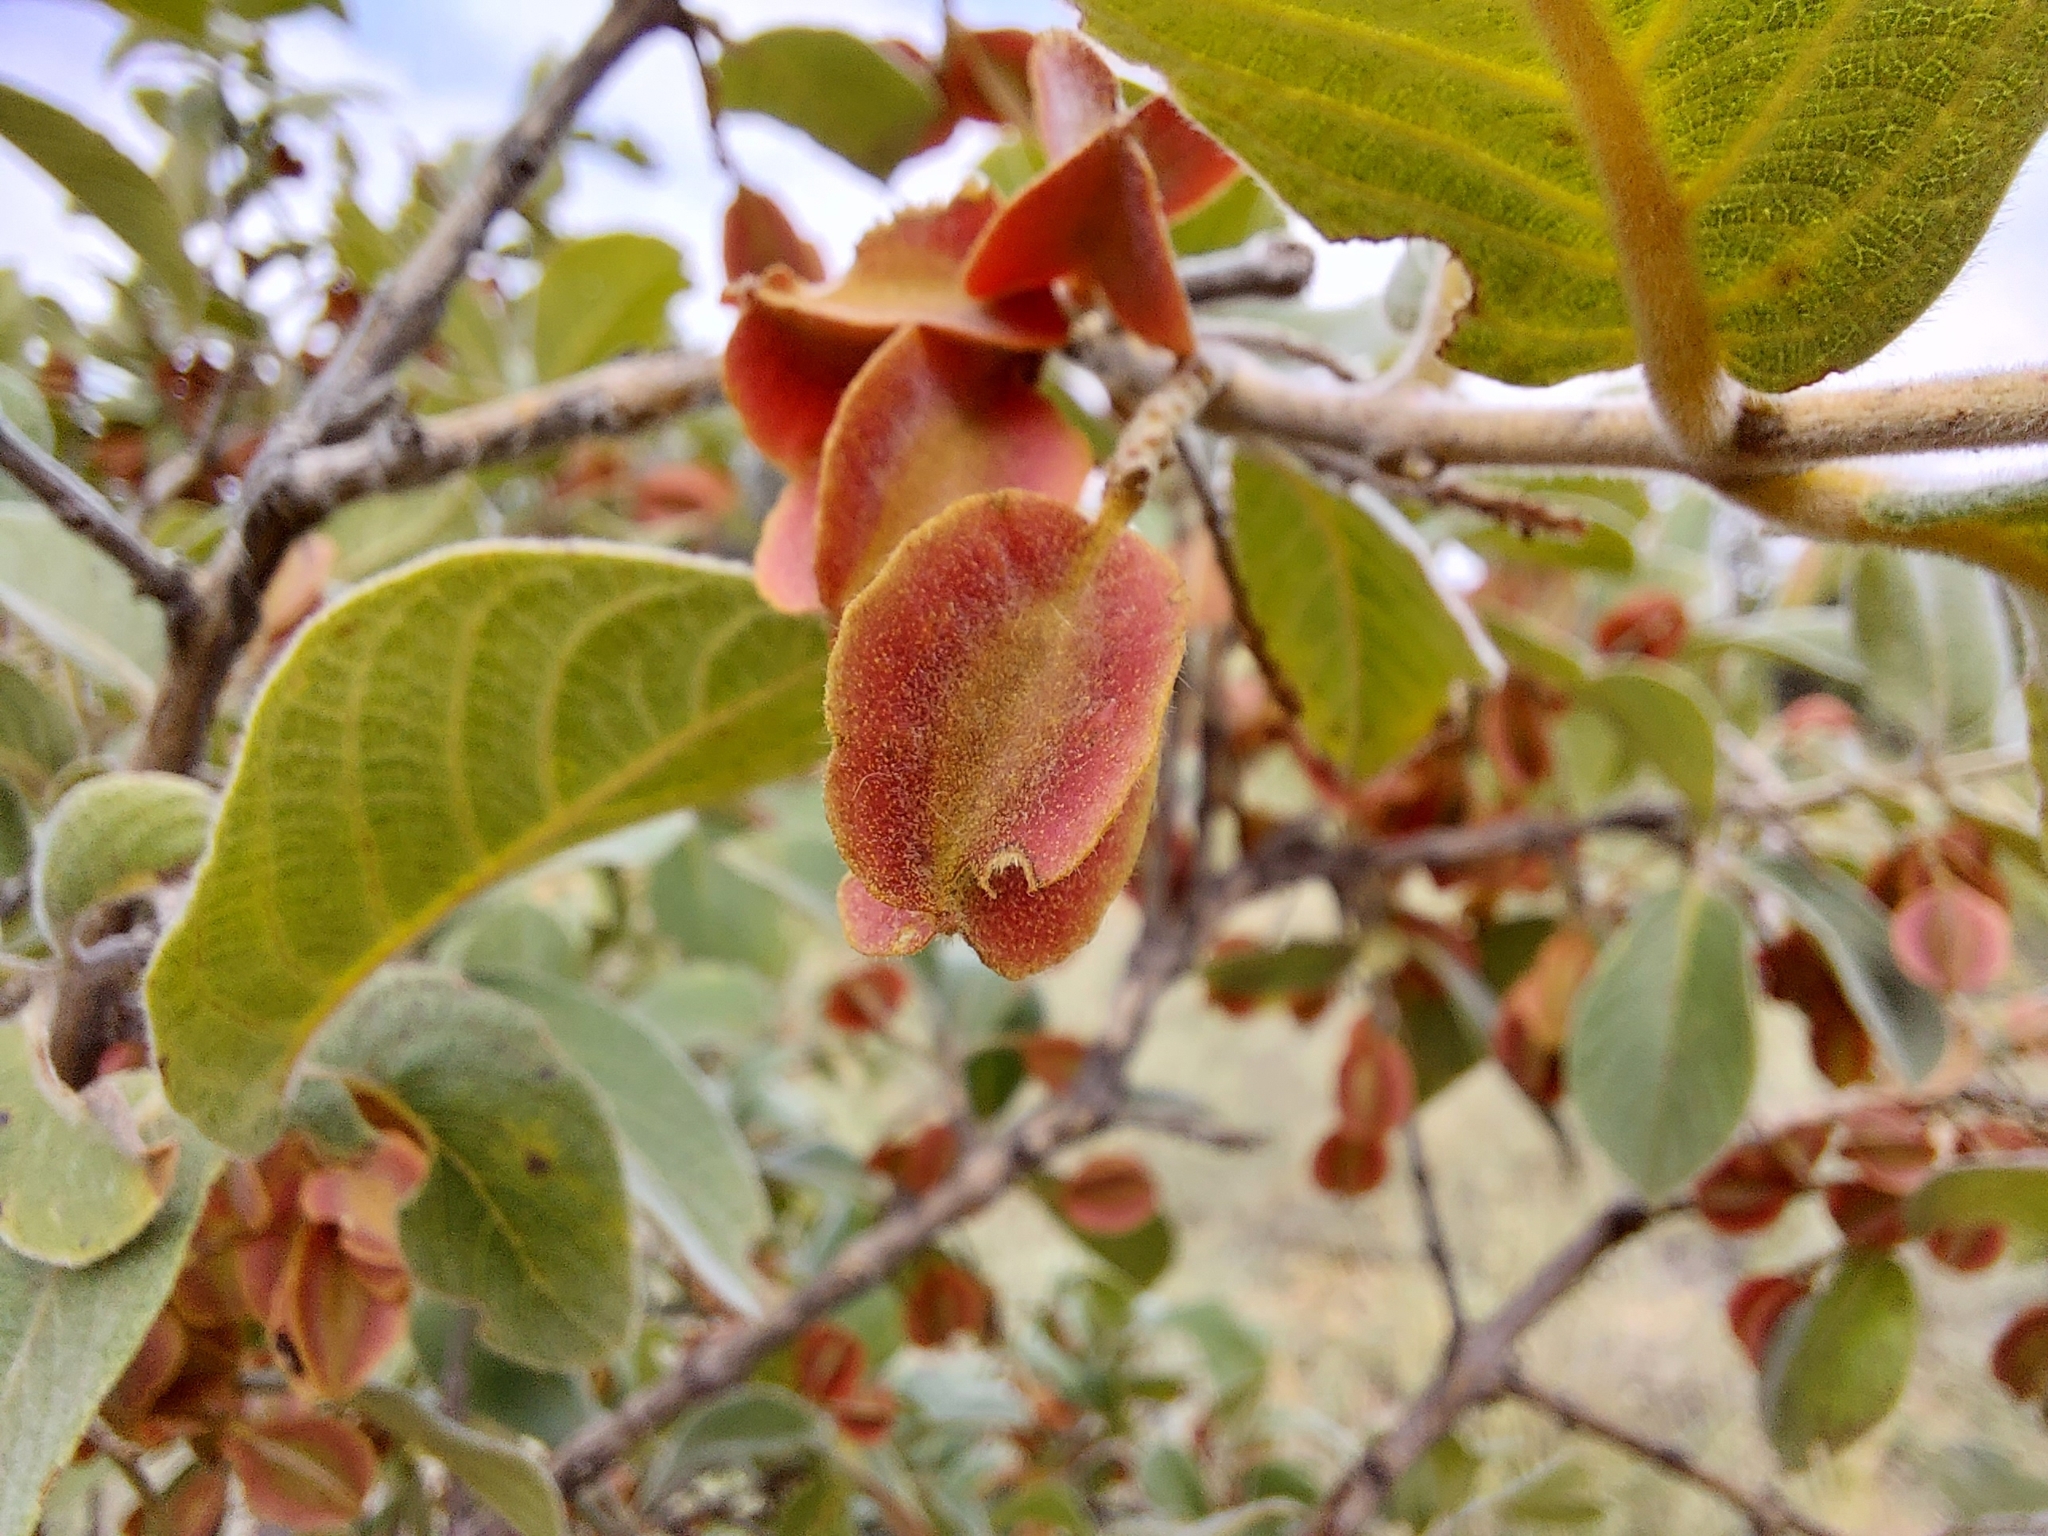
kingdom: Plantae
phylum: Tracheophyta
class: Magnoliopsida
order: Myrtales
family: Combretaceae
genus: Combretum
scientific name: Combretum molle
